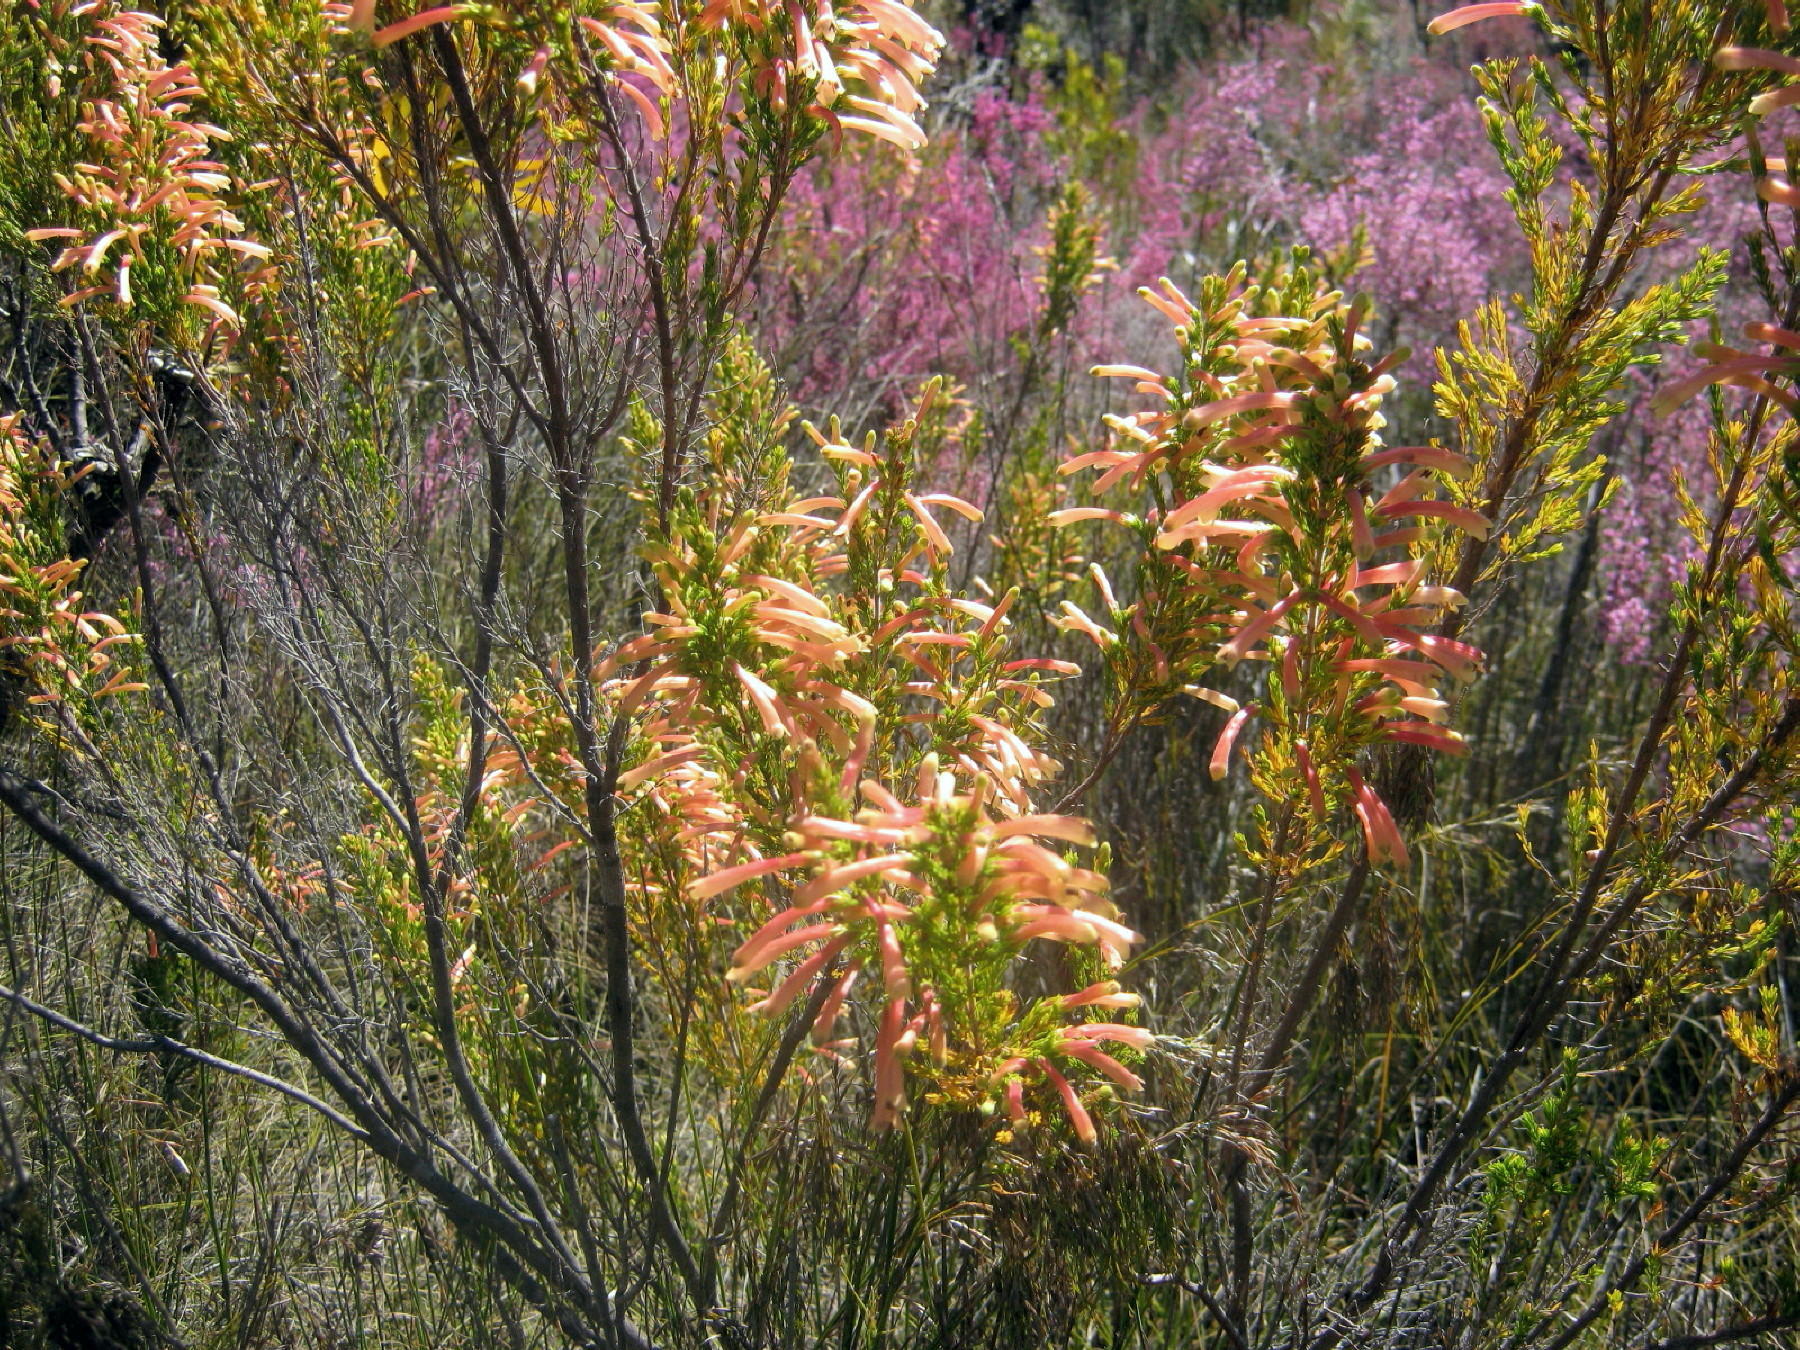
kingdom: Plantae
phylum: Tracheophyta
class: Magnoliopsida
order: Ericales
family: Ericaceae
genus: Erica
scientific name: Erica curviflora
